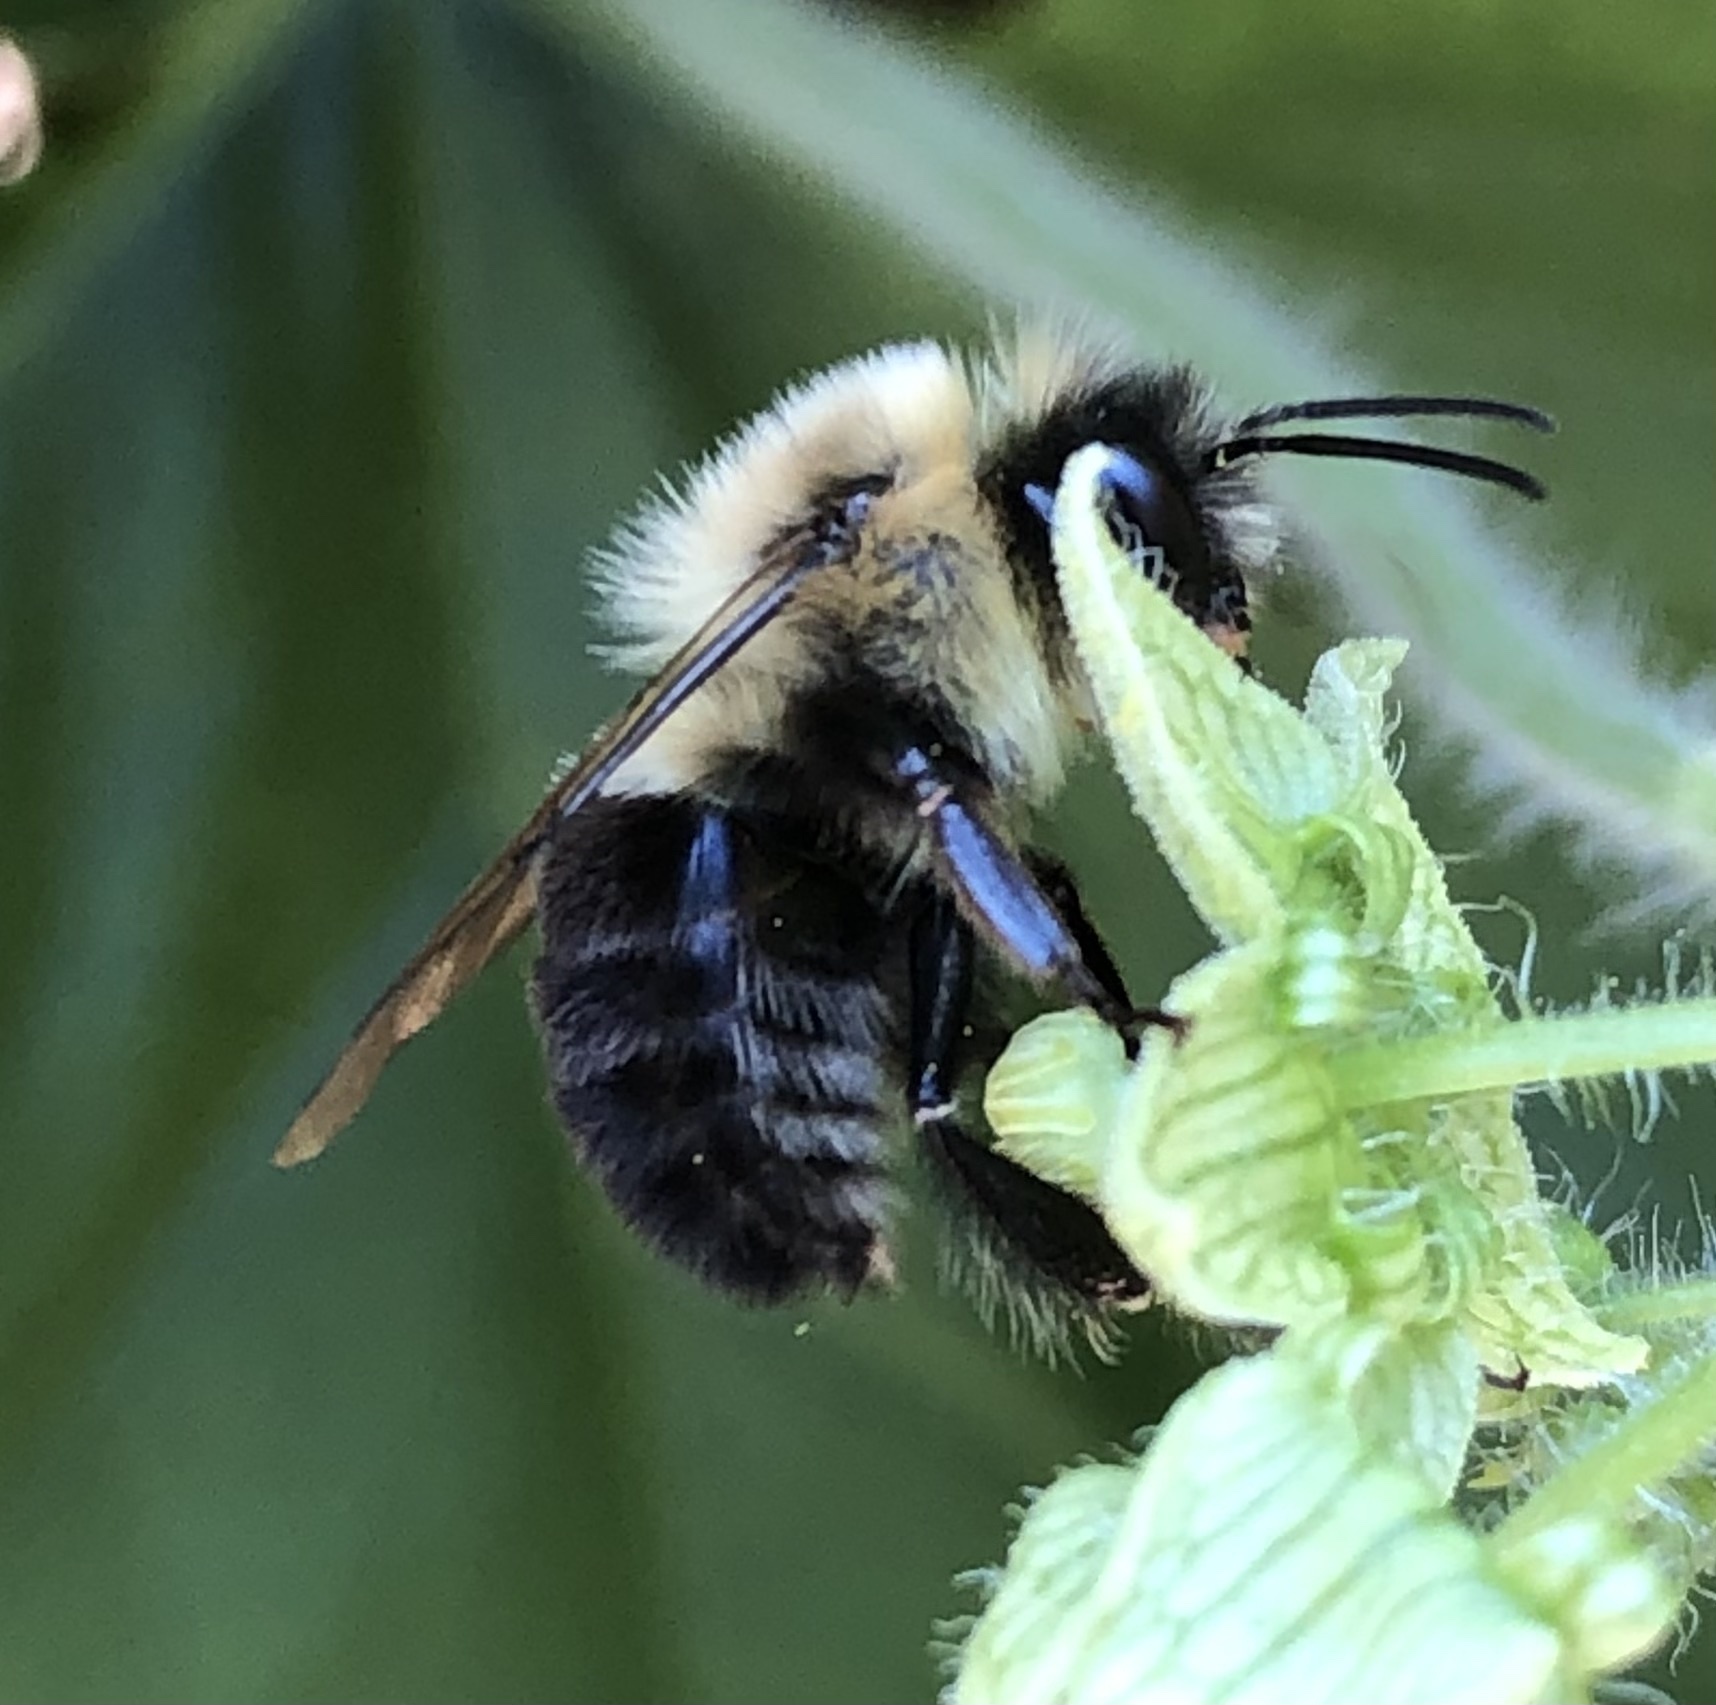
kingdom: Animalia
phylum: Arthropoda
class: Insecta
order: Hymenoptera
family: Apidae
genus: Bombus
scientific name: Bombus impatiens
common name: Common eastern bumble bee
